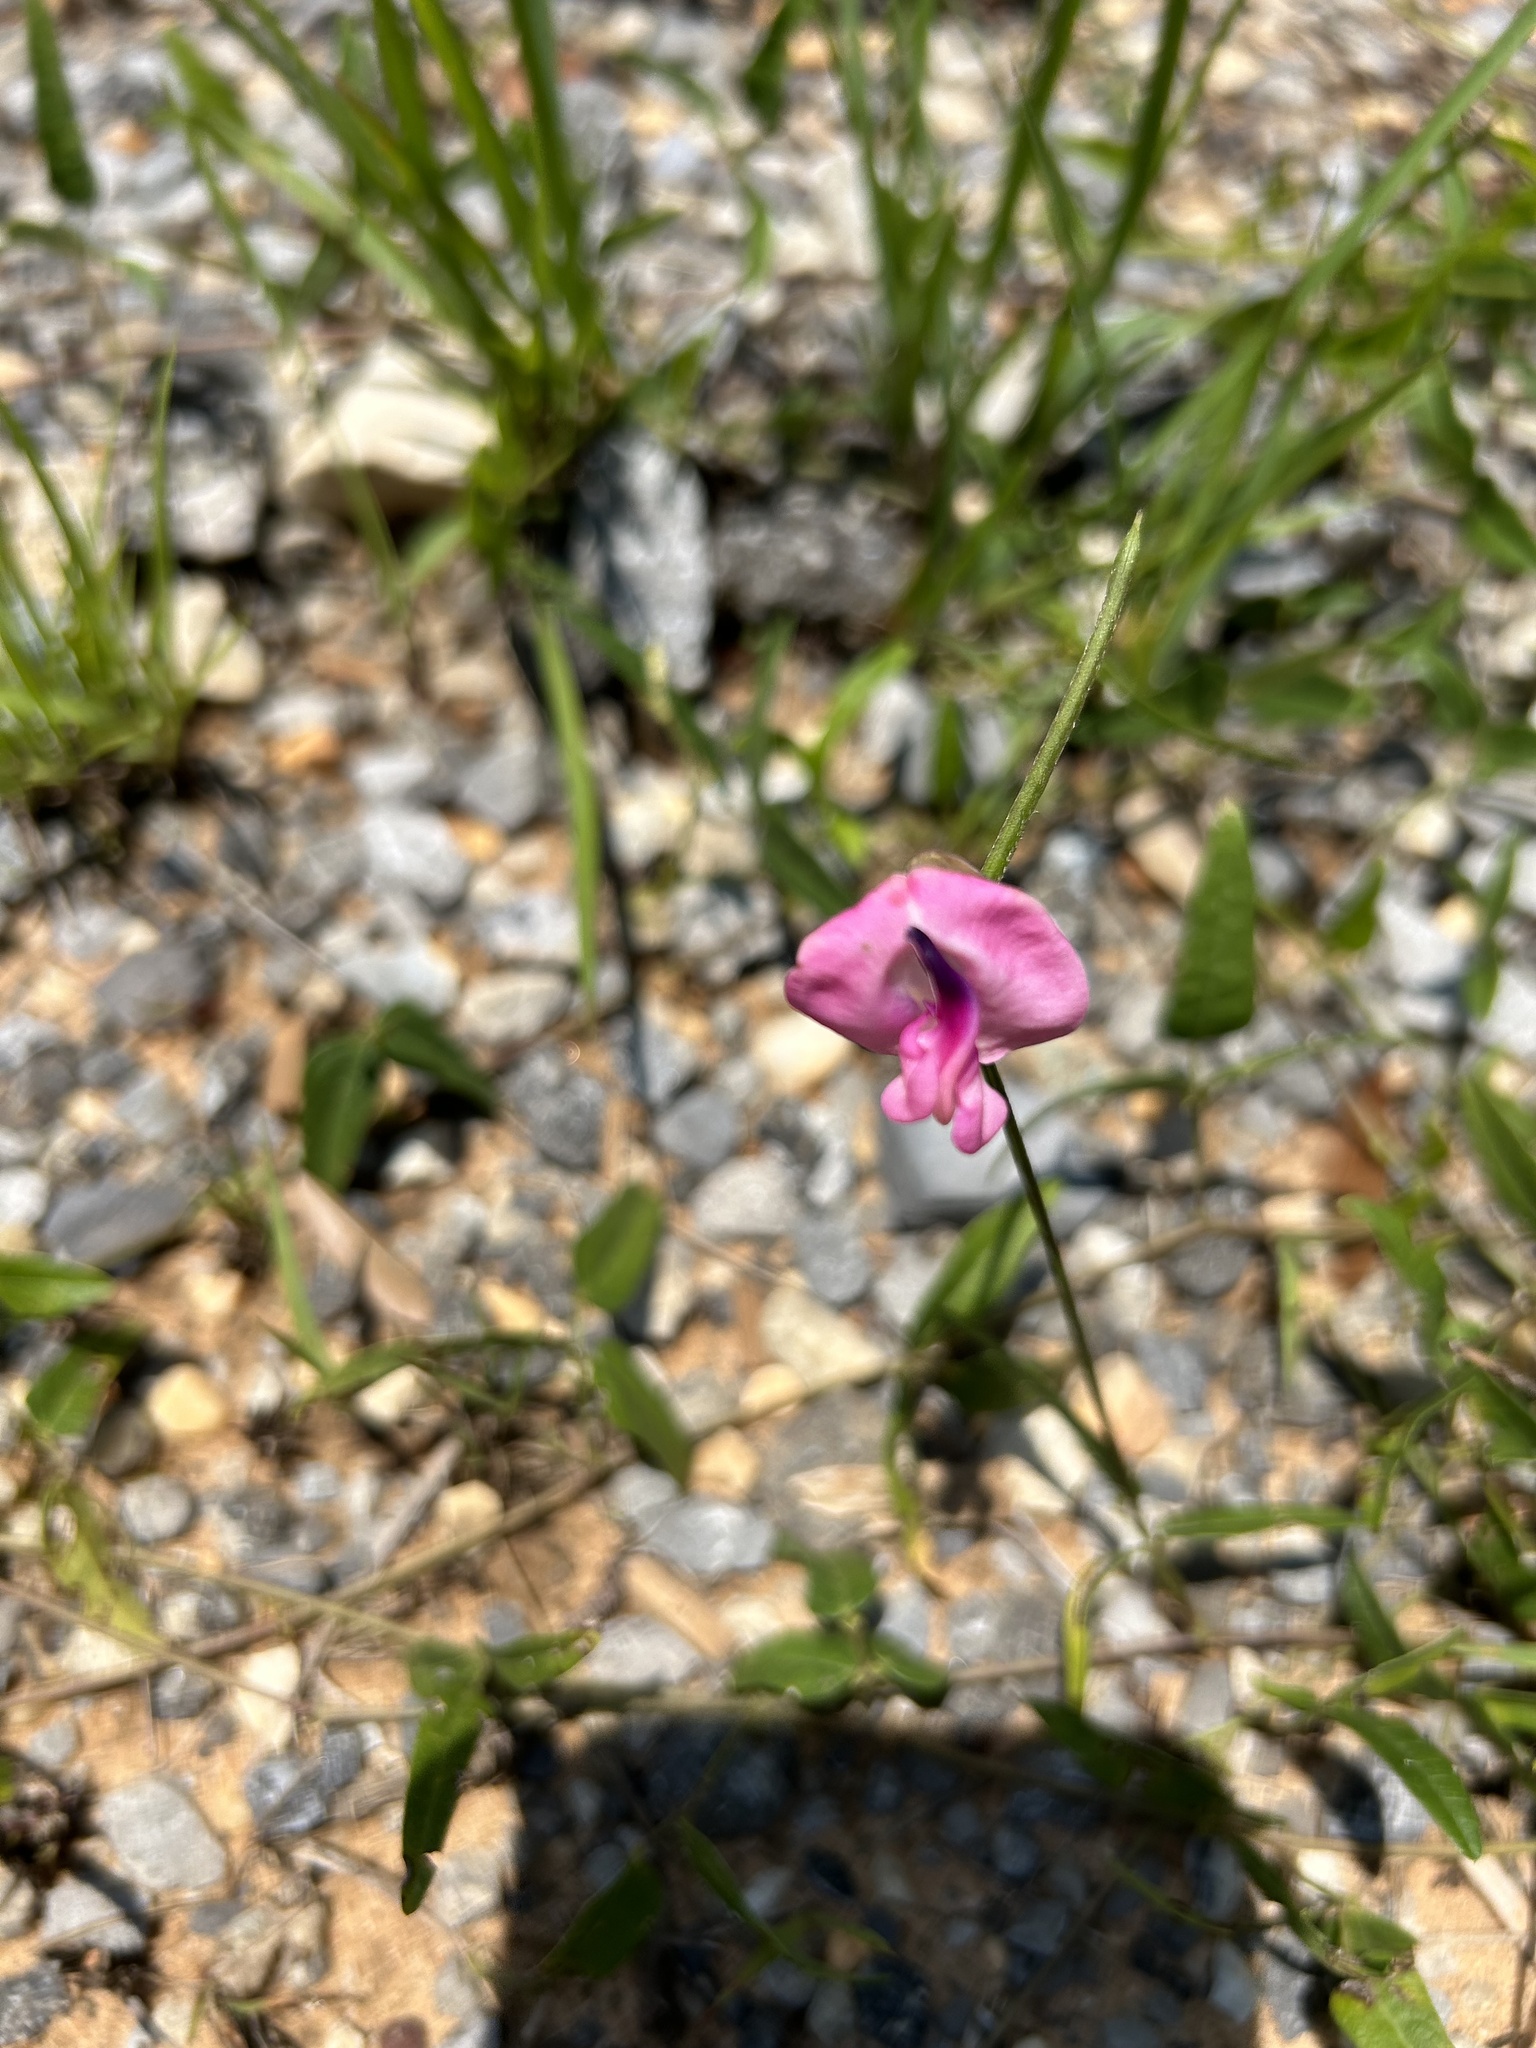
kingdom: Plantae
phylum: Tracheophyta
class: Magnoliopsida
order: Fabales
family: Fabaceae
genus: Strophostyles
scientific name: Strophostyles umbellata
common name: Perennial wild bean
